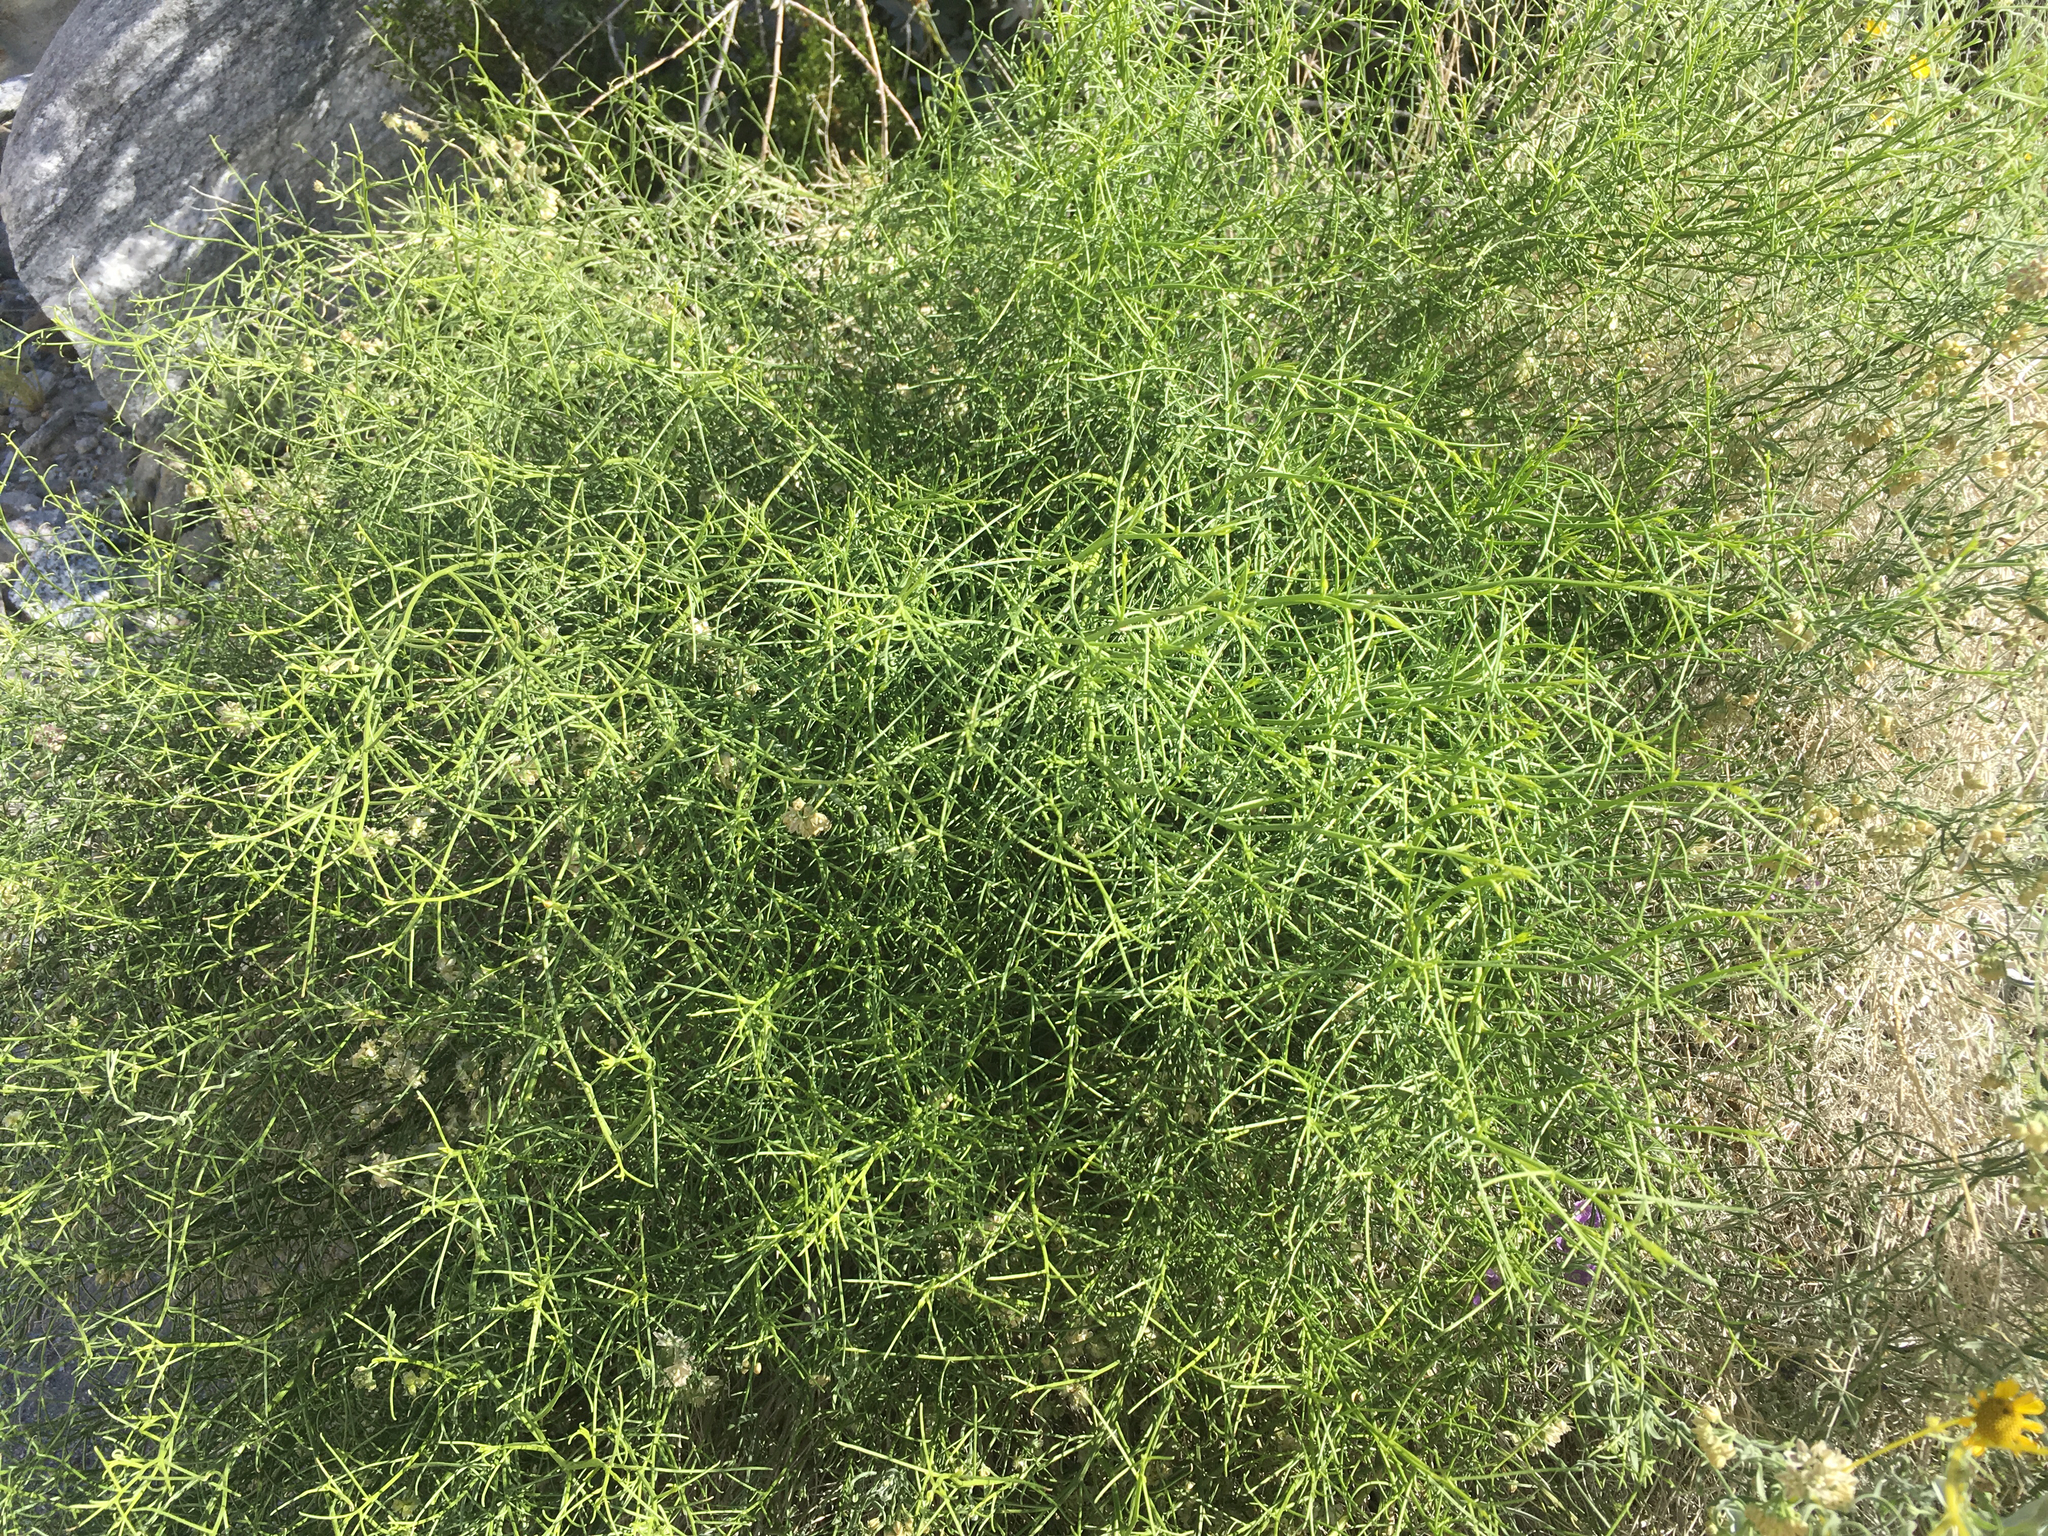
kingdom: Plantae
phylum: Tracheophyta
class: Magnoliopsida
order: Asterales
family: Asteraceae
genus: Ambrosia
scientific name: Ambrosia salsola
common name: Burrobrush
